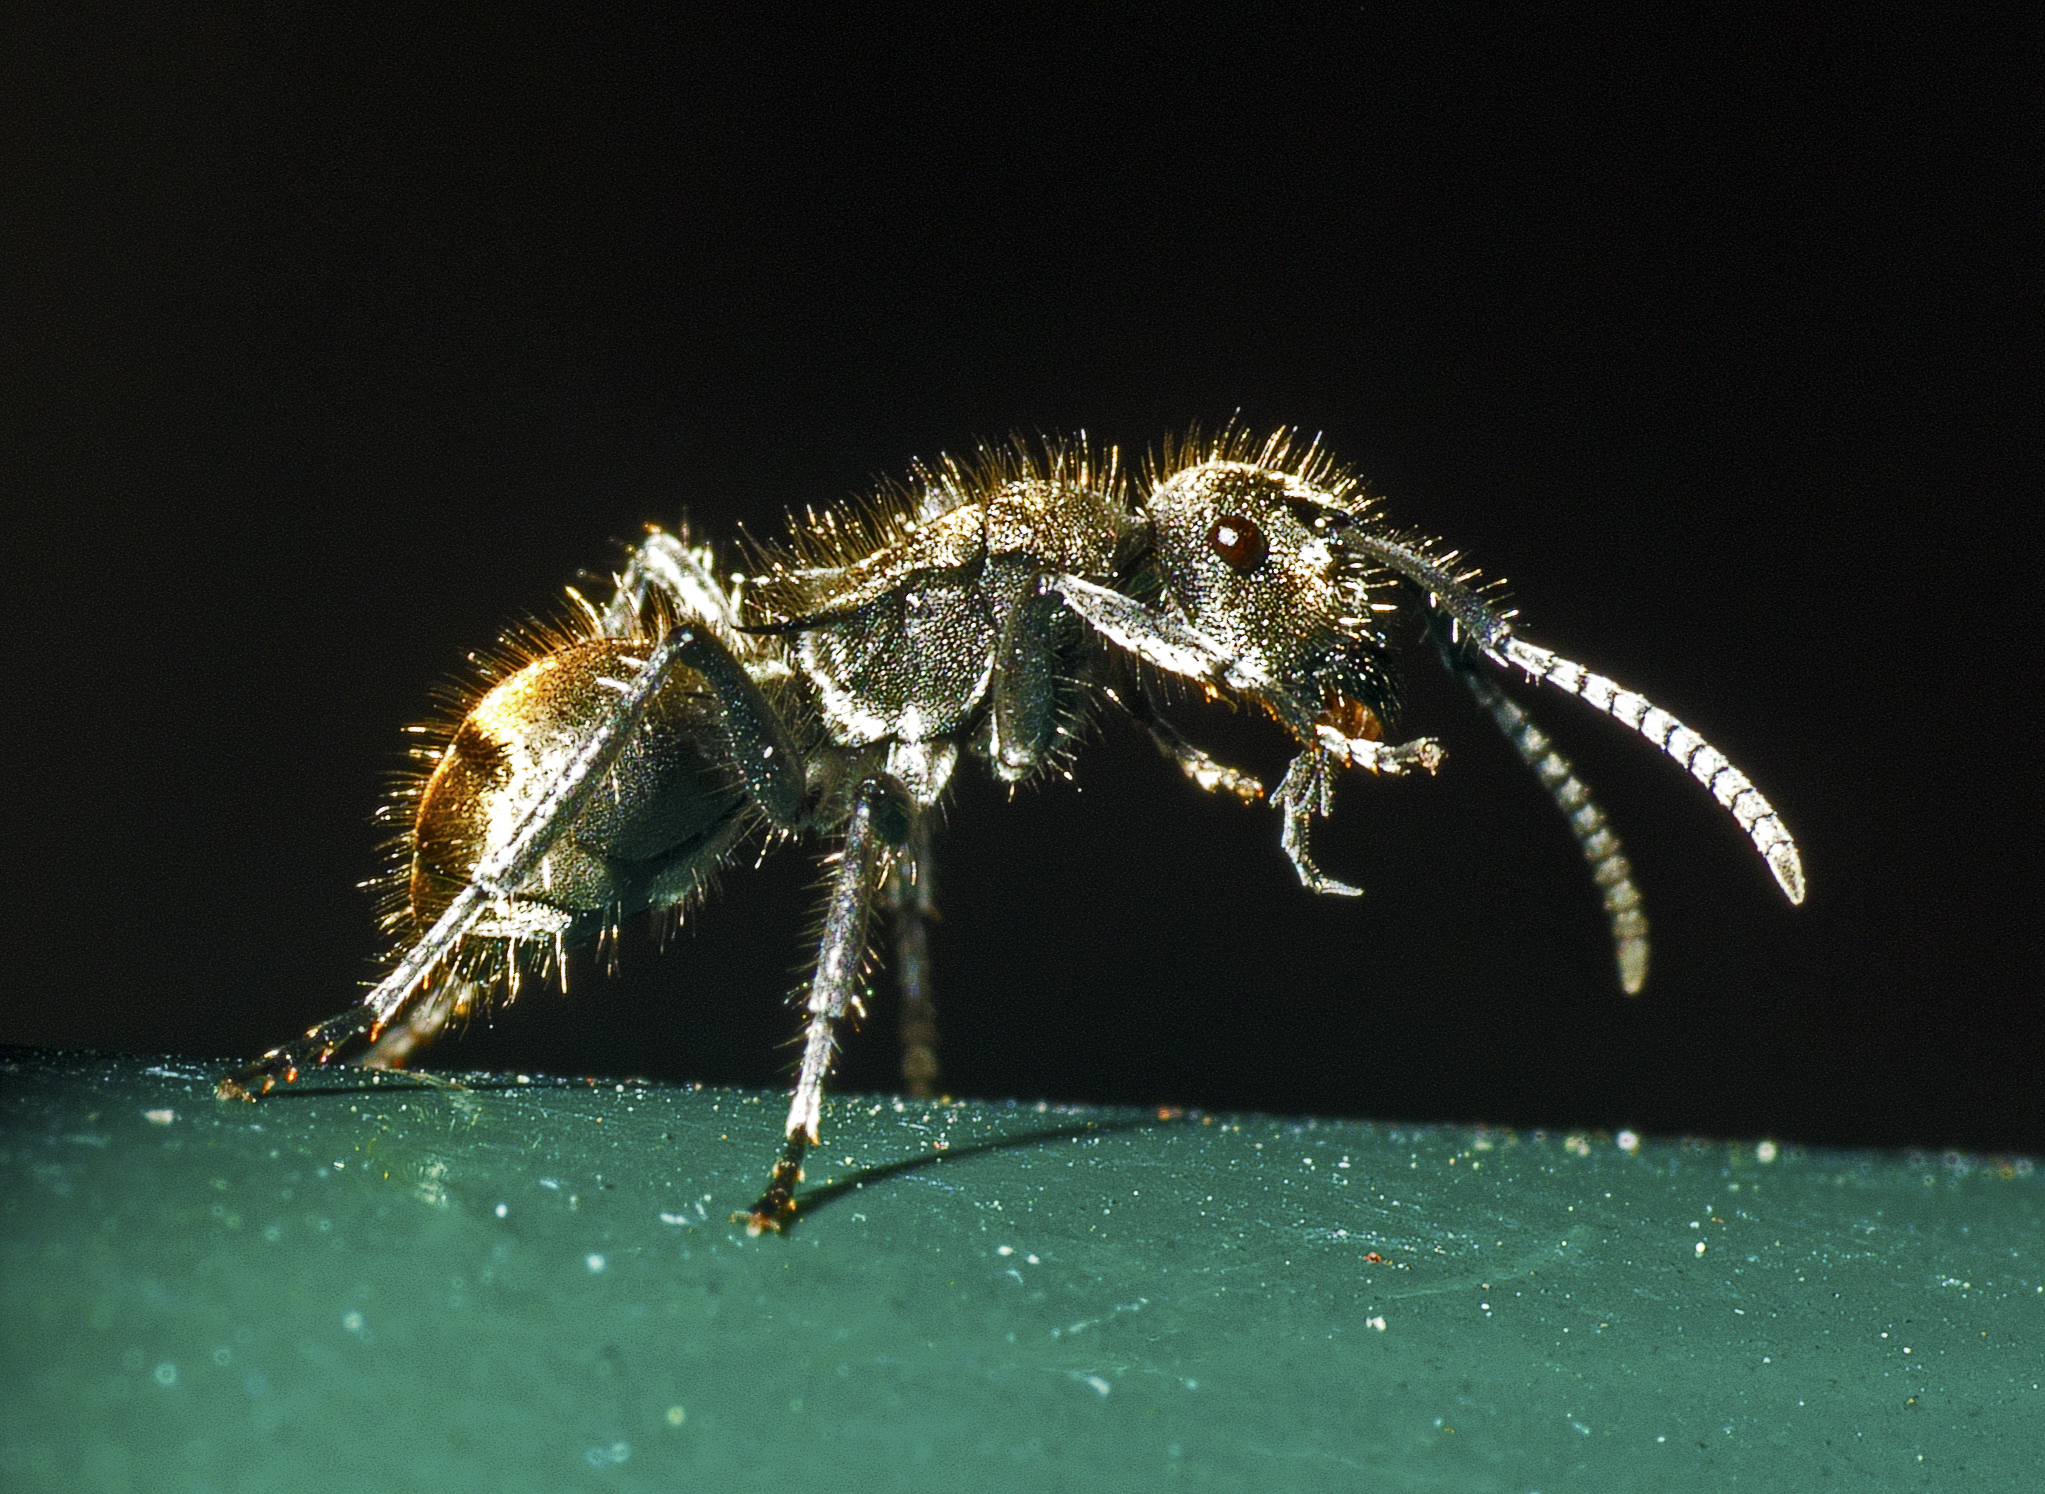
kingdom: Animalia
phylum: Arthropoda
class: Insecta
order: Hymenoptera
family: Formicidae
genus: Polyrhachis
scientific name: Polyrhachis aurea
